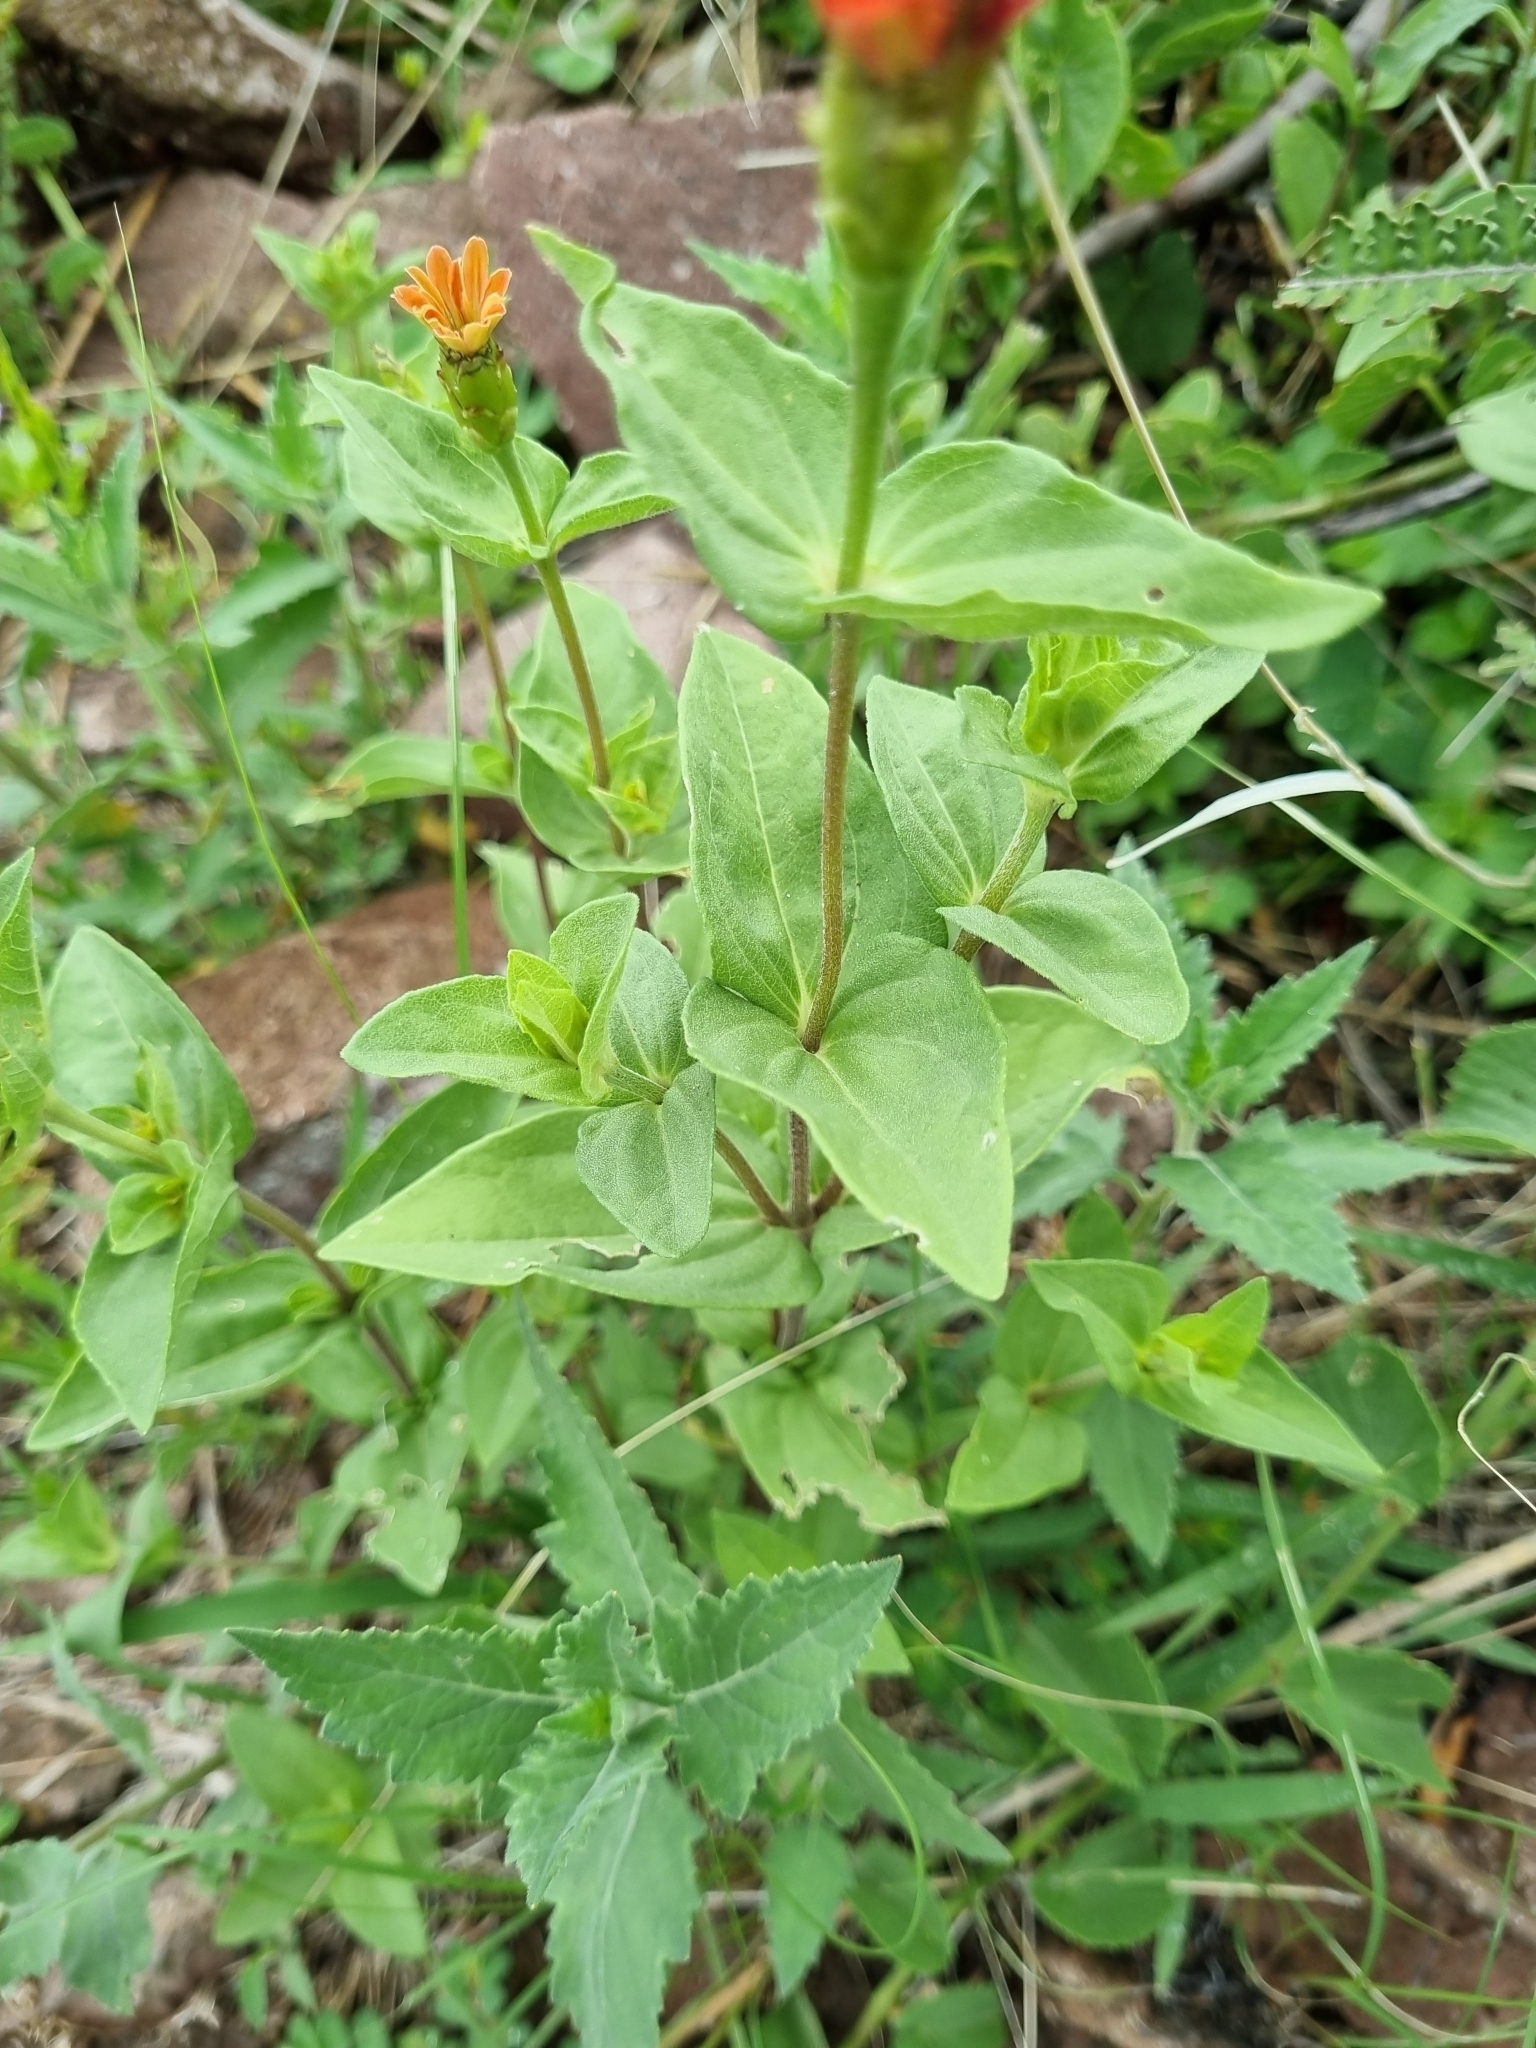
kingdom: Plantae
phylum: Tracheophyta
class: Magnoliopsida
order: Asterales
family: Asteraceae
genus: Zinnia
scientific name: Zinnia peruviana
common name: Peruvian zinnia
